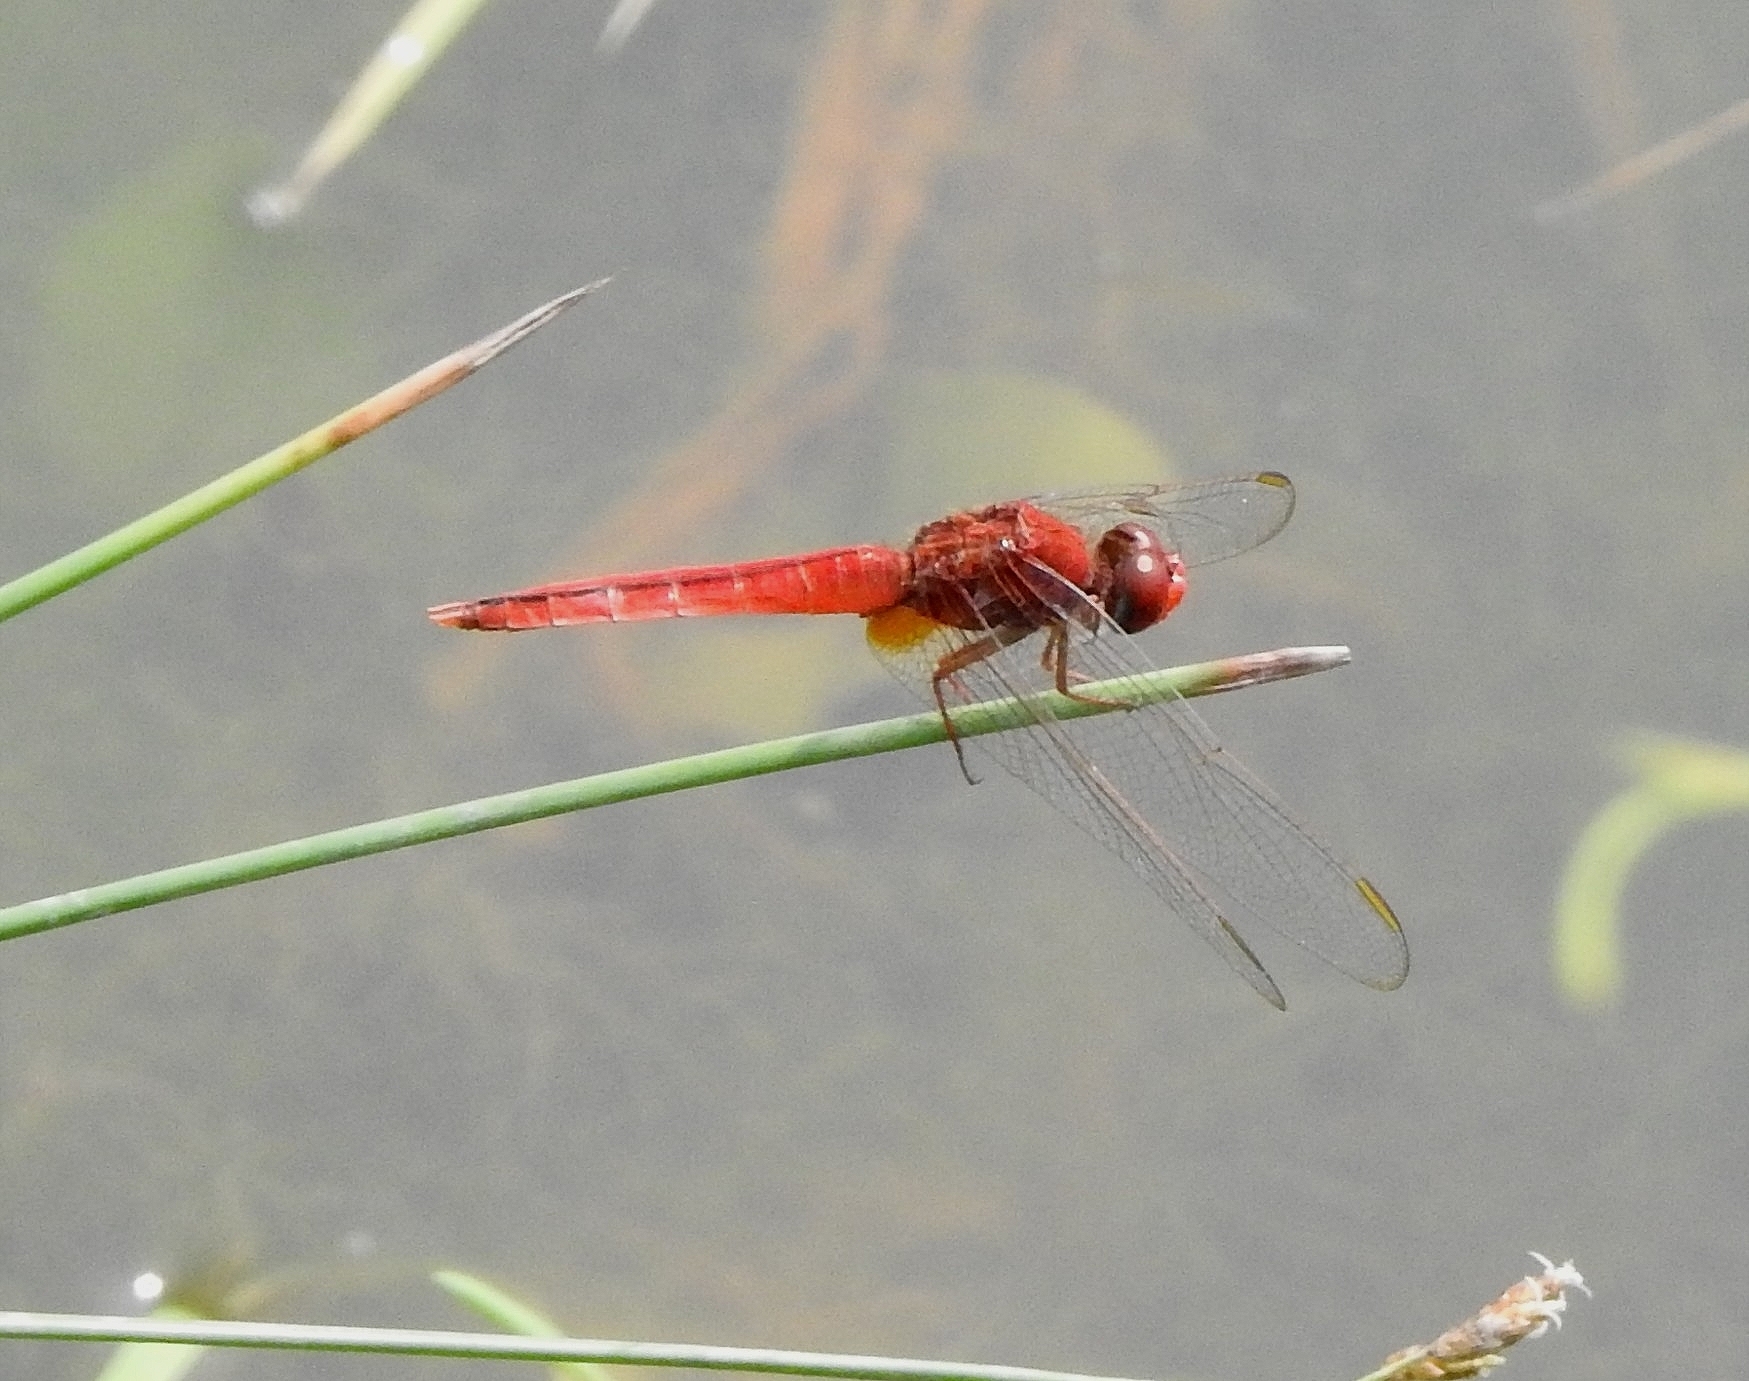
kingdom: Animalia
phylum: Arthropoda
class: Insecta
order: Odonata
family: Libellulidae
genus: Crocothemis
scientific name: Crocothemis servilia
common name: Scarlet skimmer
